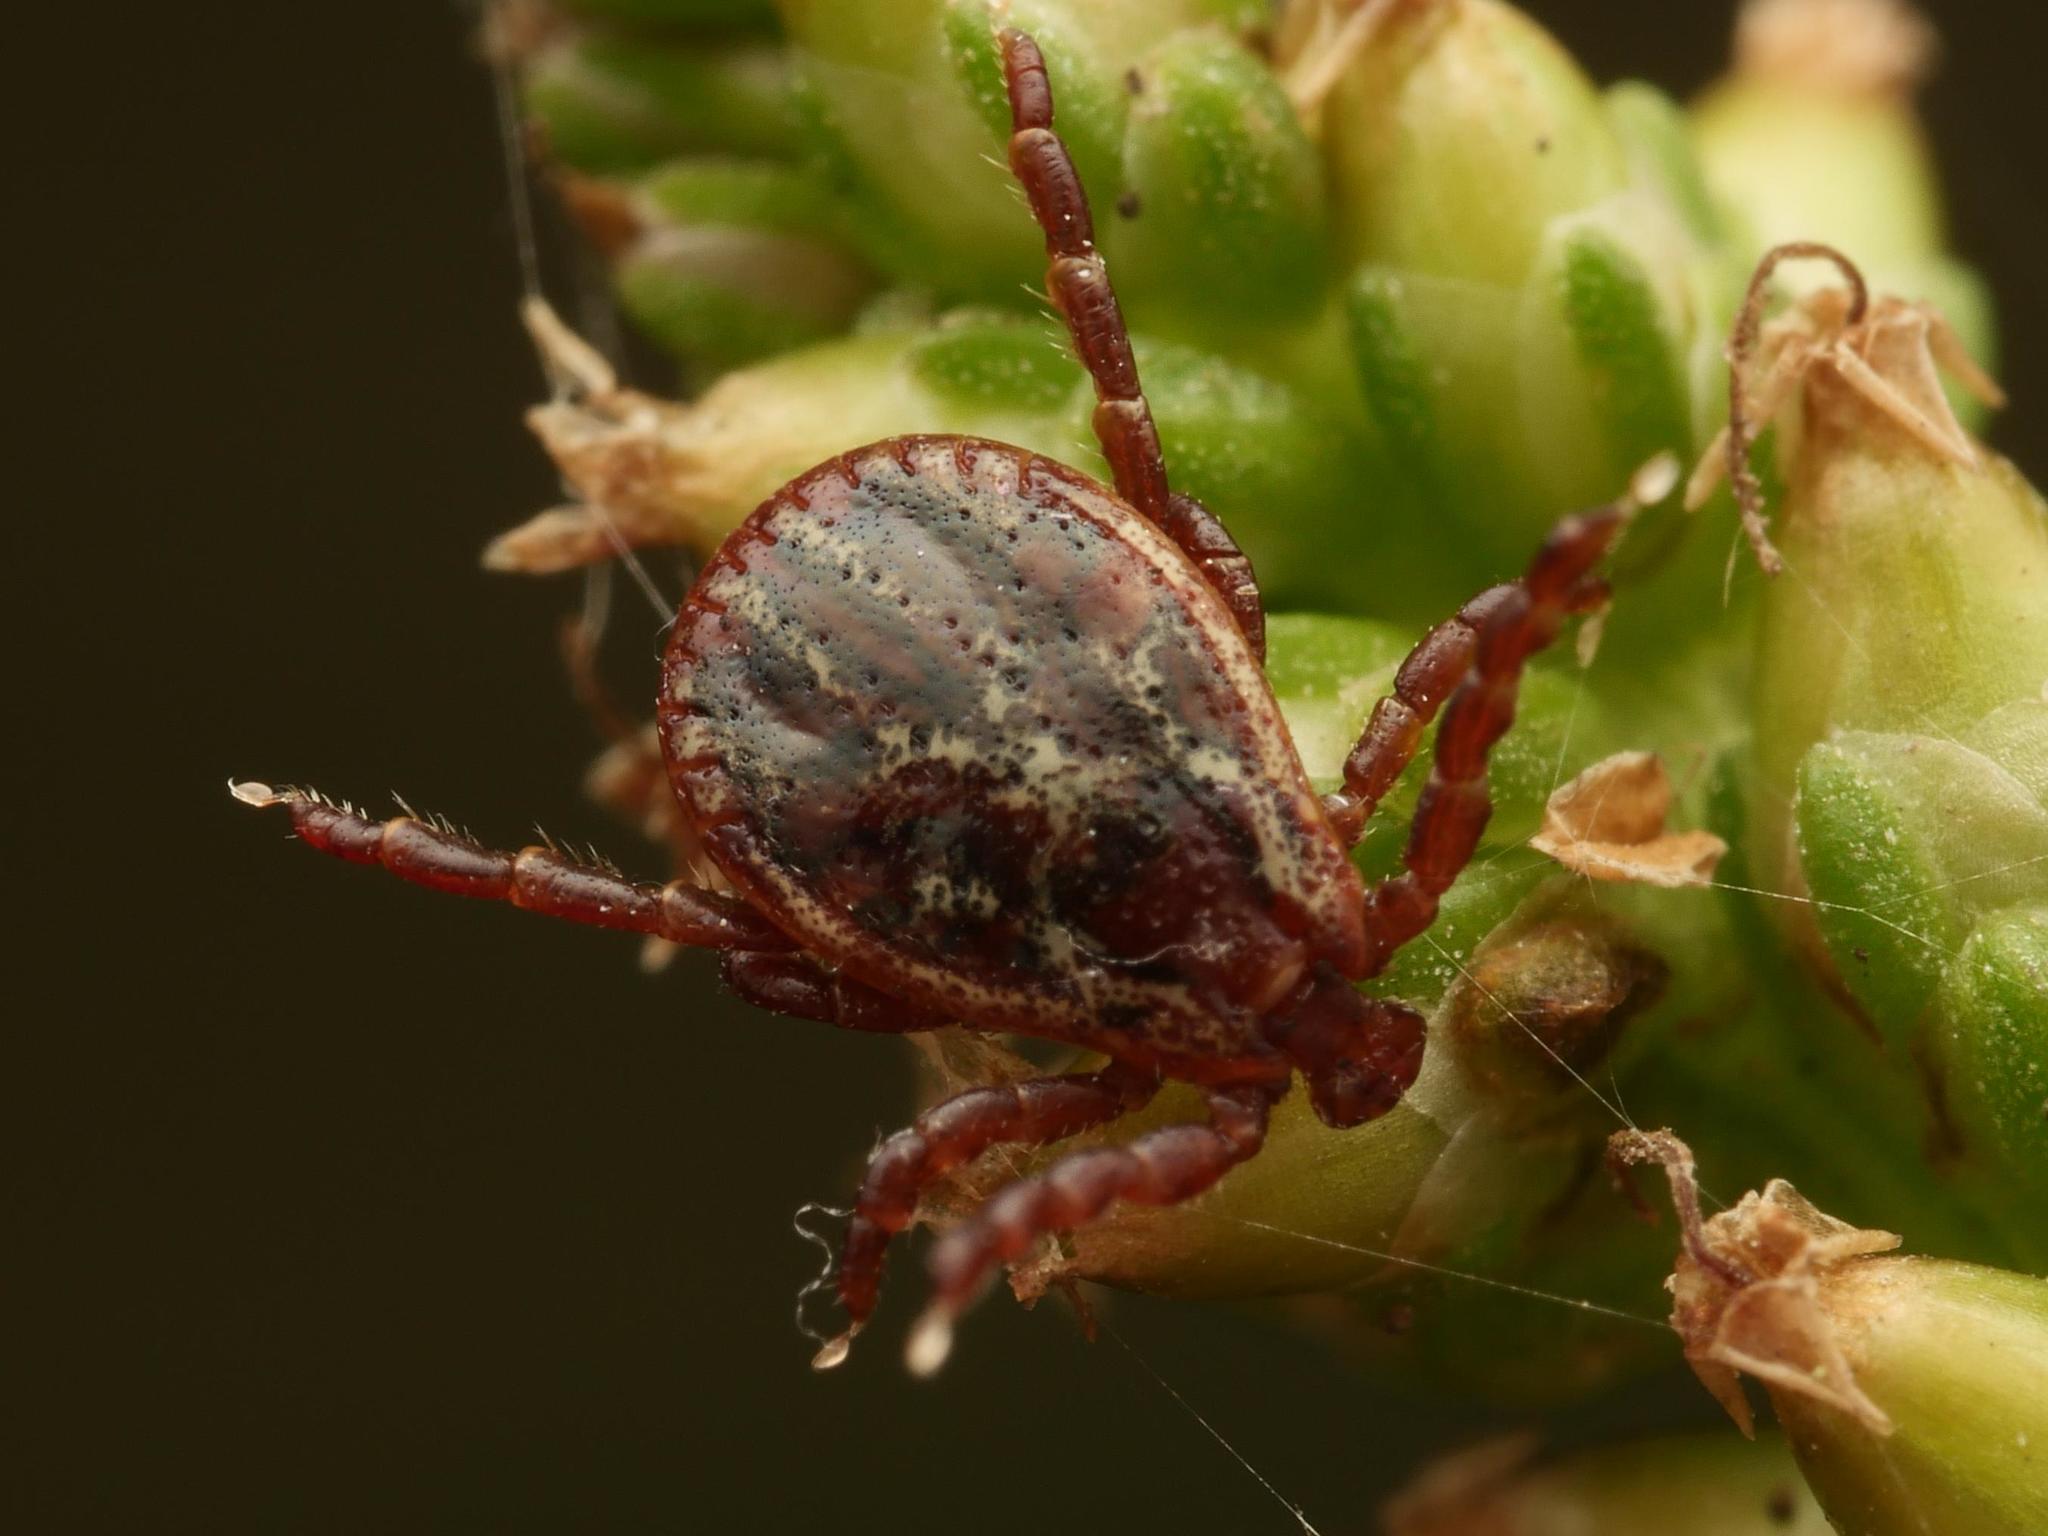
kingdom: Animalia
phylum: Arthropoda
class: Arachnida
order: Ixodida
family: Ixodidae
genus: Dermacentor
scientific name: Dermacentor reticulatus
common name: Ornate cow tick
